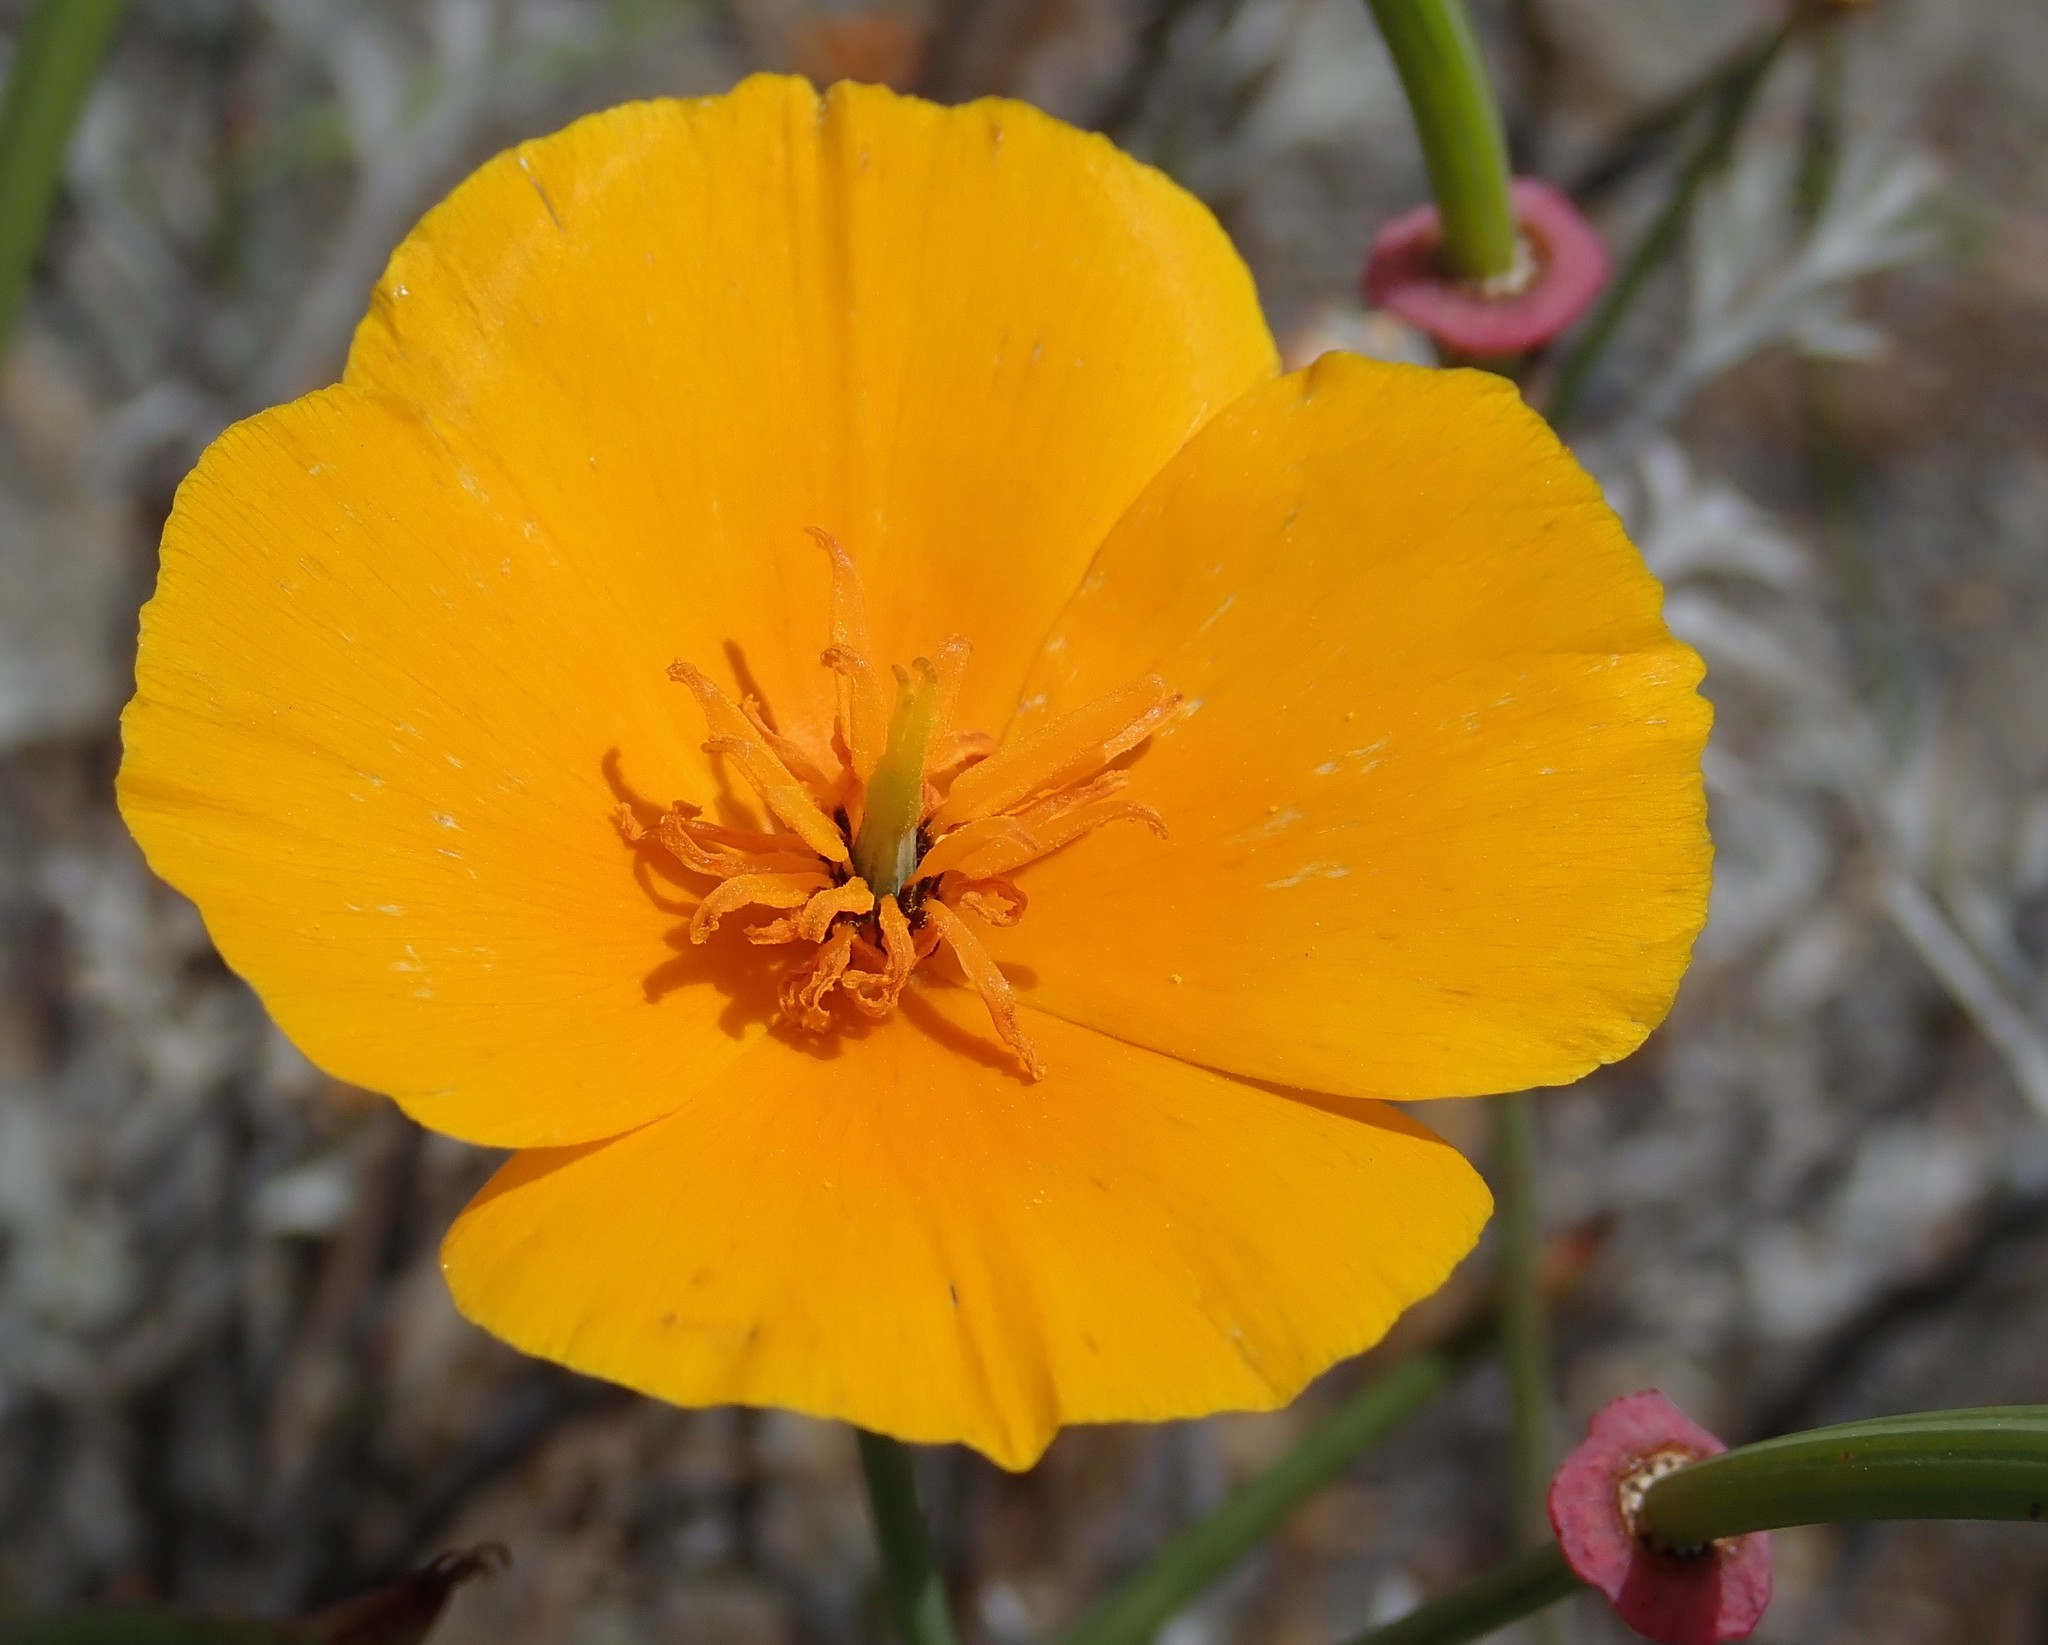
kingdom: Plantae
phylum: Tracheophyta
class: Magnoliopsida
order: Ranunculales
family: Papaveraceae
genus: Eschscholzia
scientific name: Eschscholzia californica
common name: California poppy
